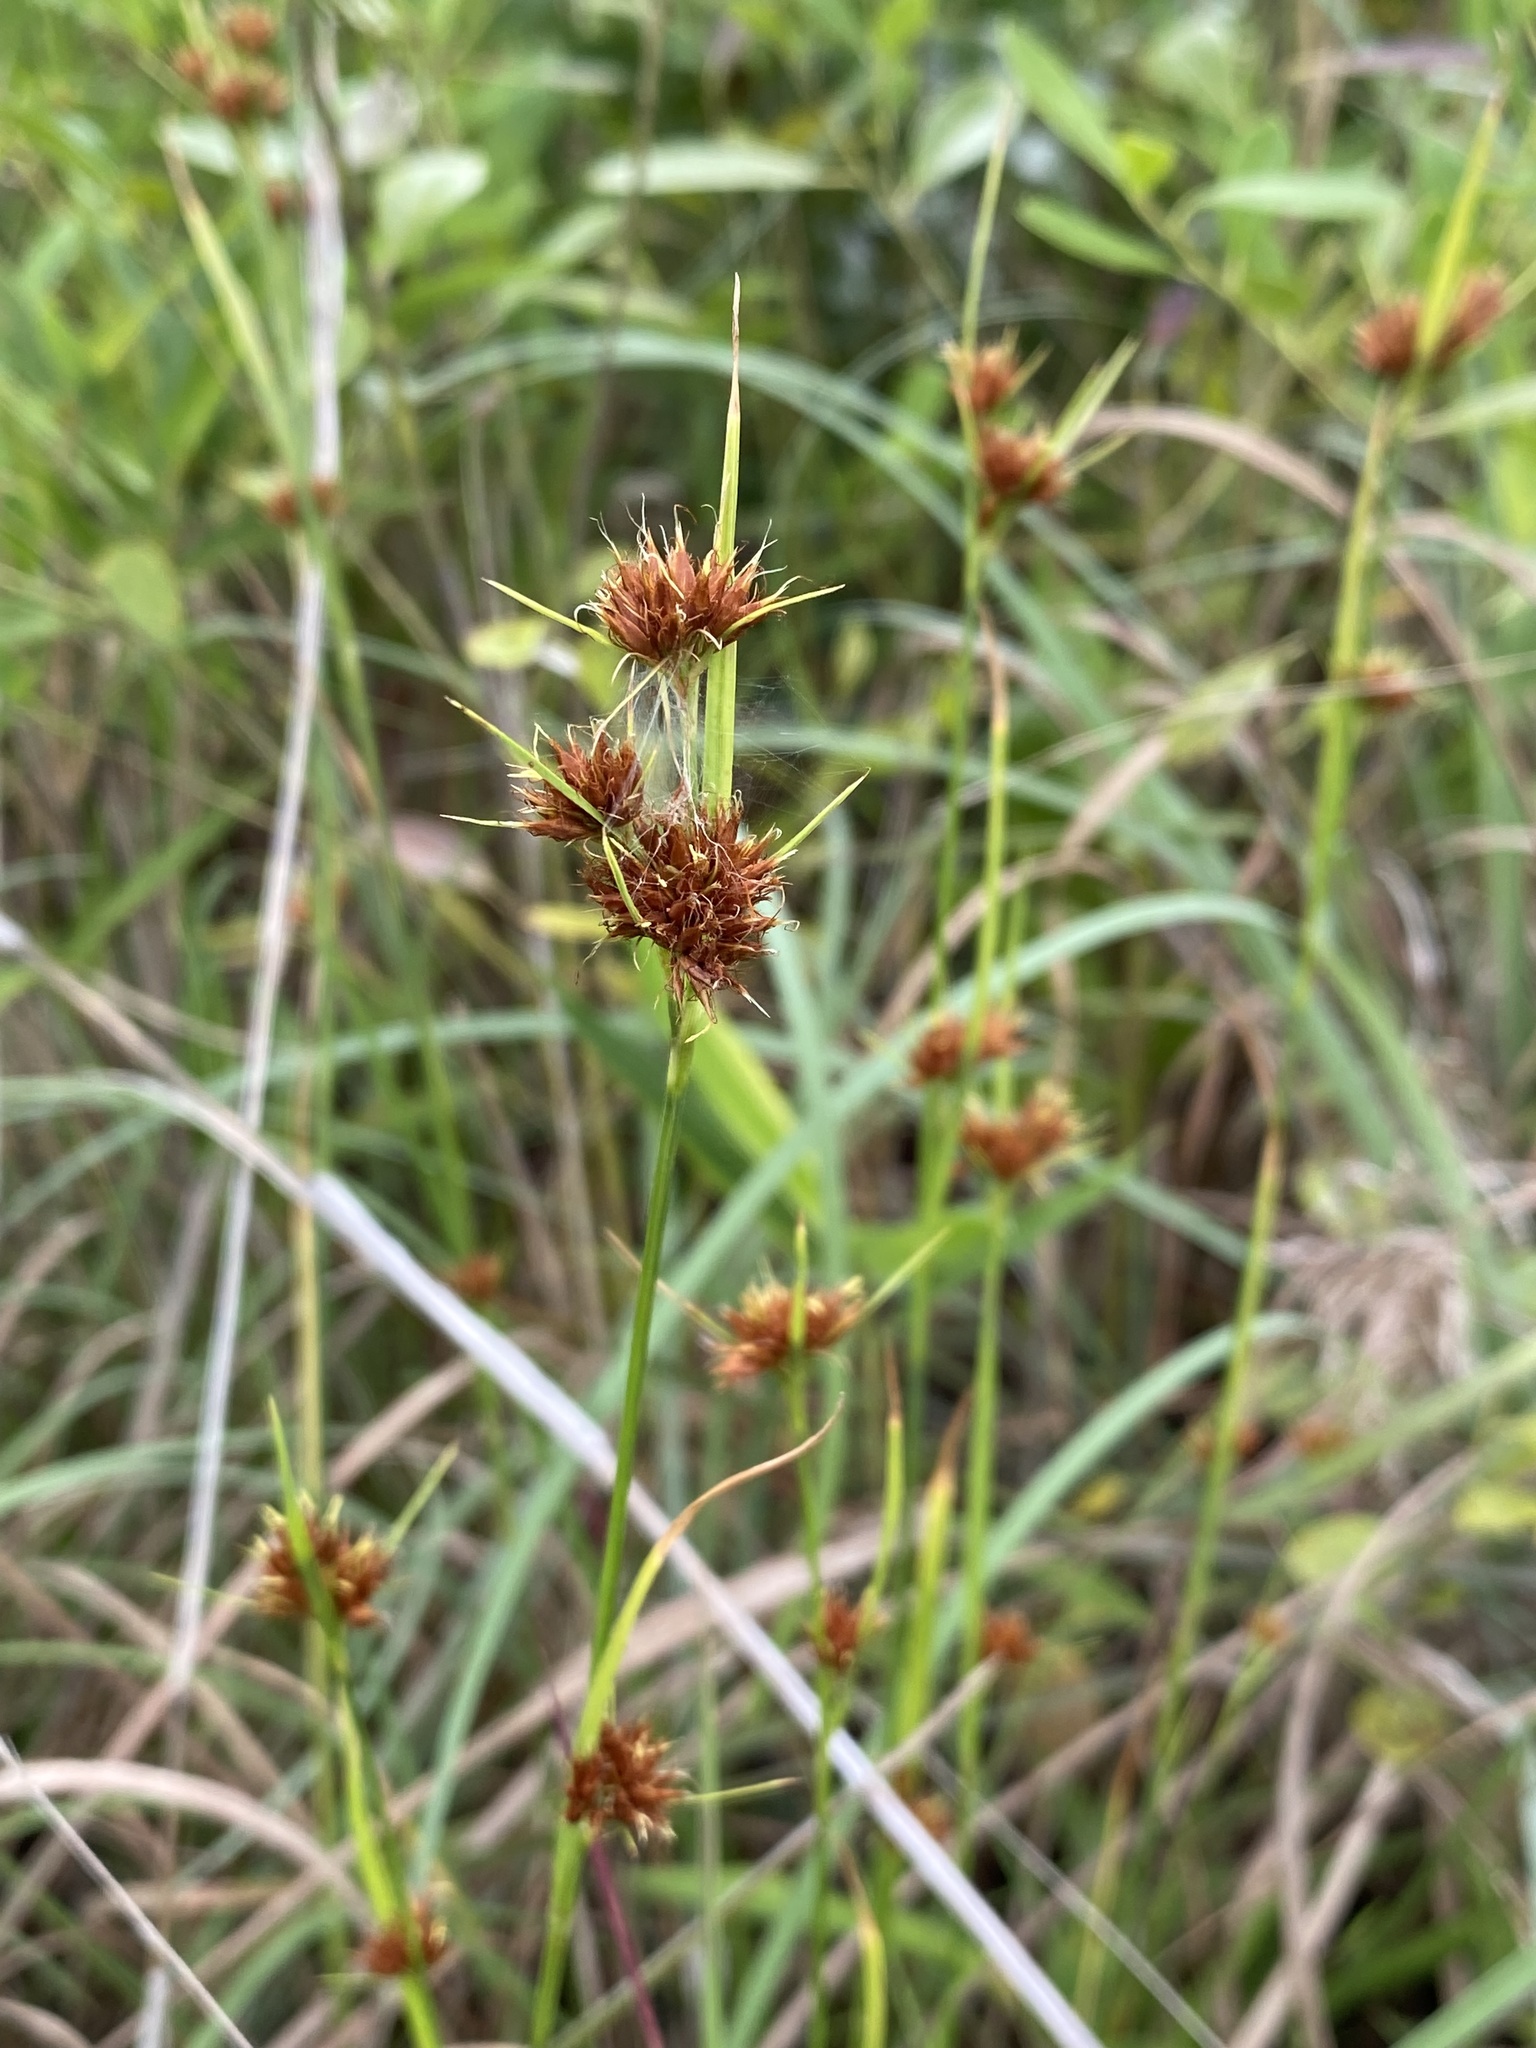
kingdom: Plantae
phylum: Tracheophyta
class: Liliopsida
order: Poales
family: Cyperaceae
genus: Rhynchospora
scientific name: Rhynchospora fascicularis
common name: Fascicled beak sedge
